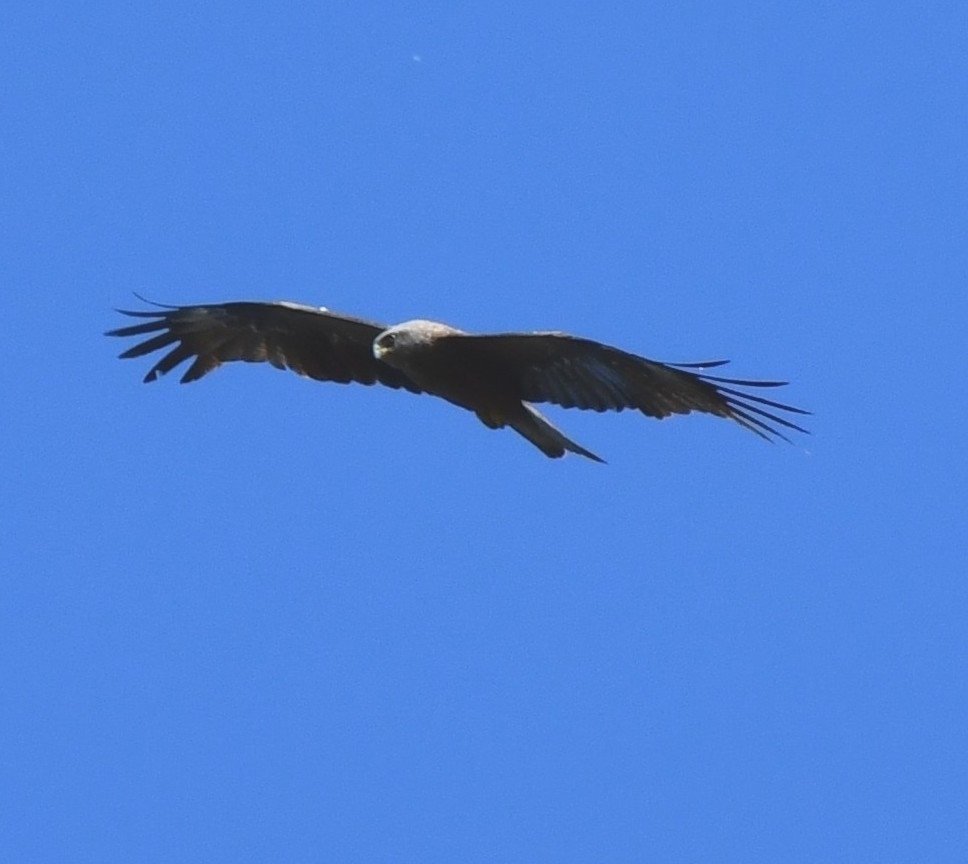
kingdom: Animalia
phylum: Chordata
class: Aves
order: Accipitriformes
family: Accipitridae
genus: Milvus
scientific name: Milvus migrans
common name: Black kite
